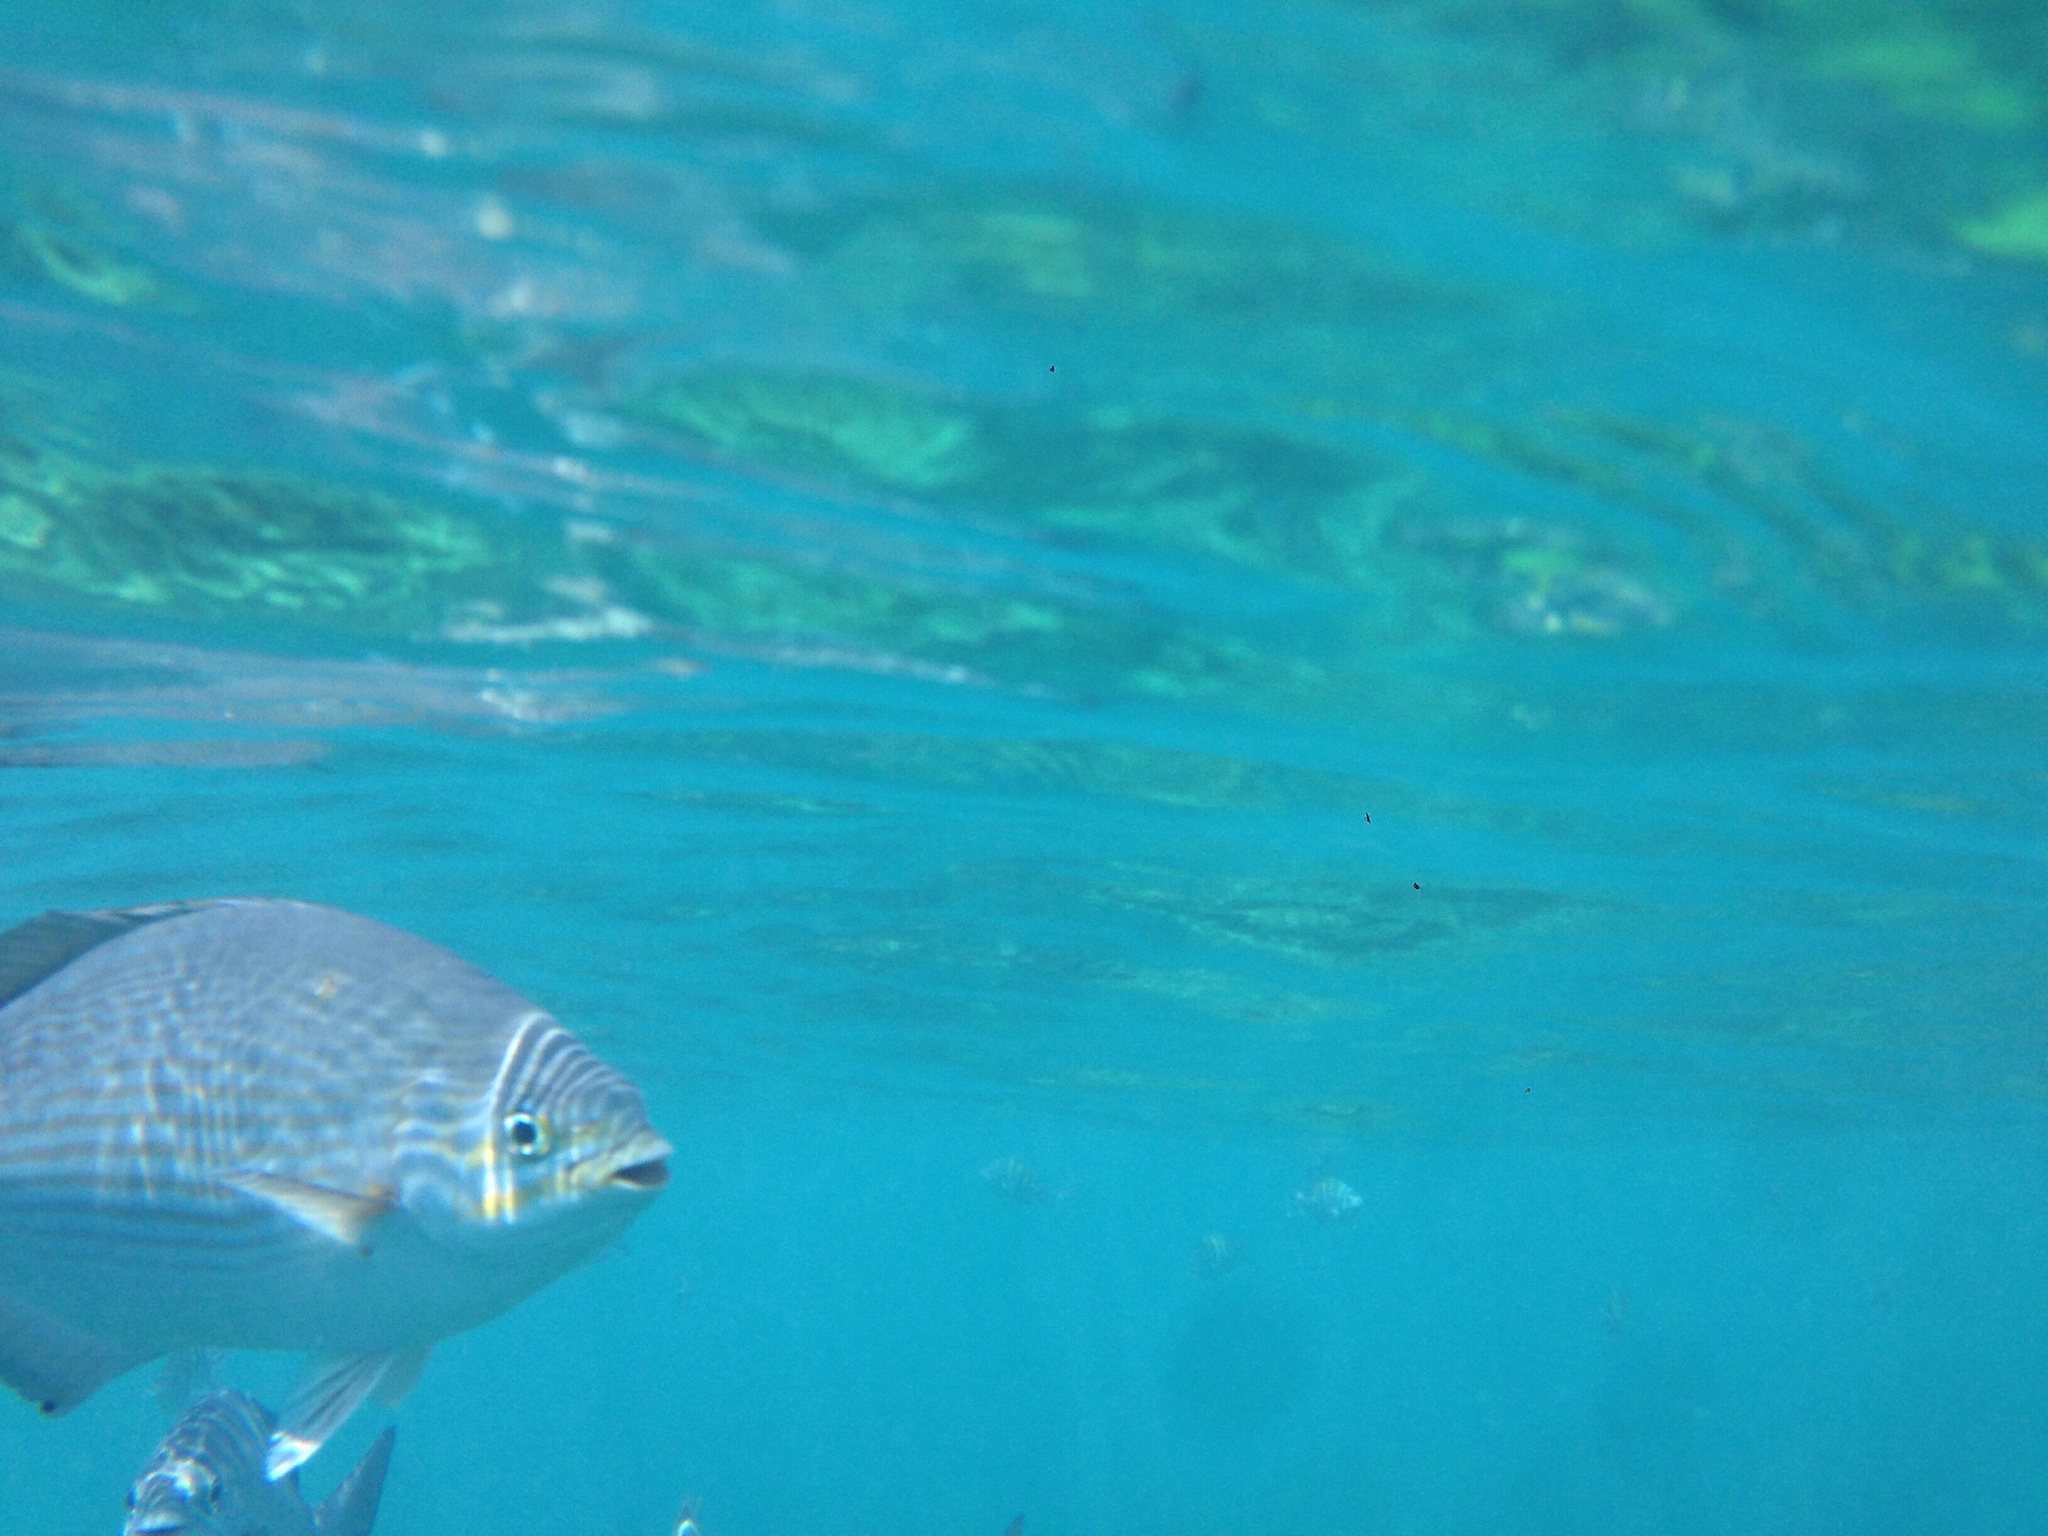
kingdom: Animalia
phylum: Chordata
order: Perciformes
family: Kyphosidae
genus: Kyphosus
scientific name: Kyphosus sectatrix
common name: Bermuda chub
